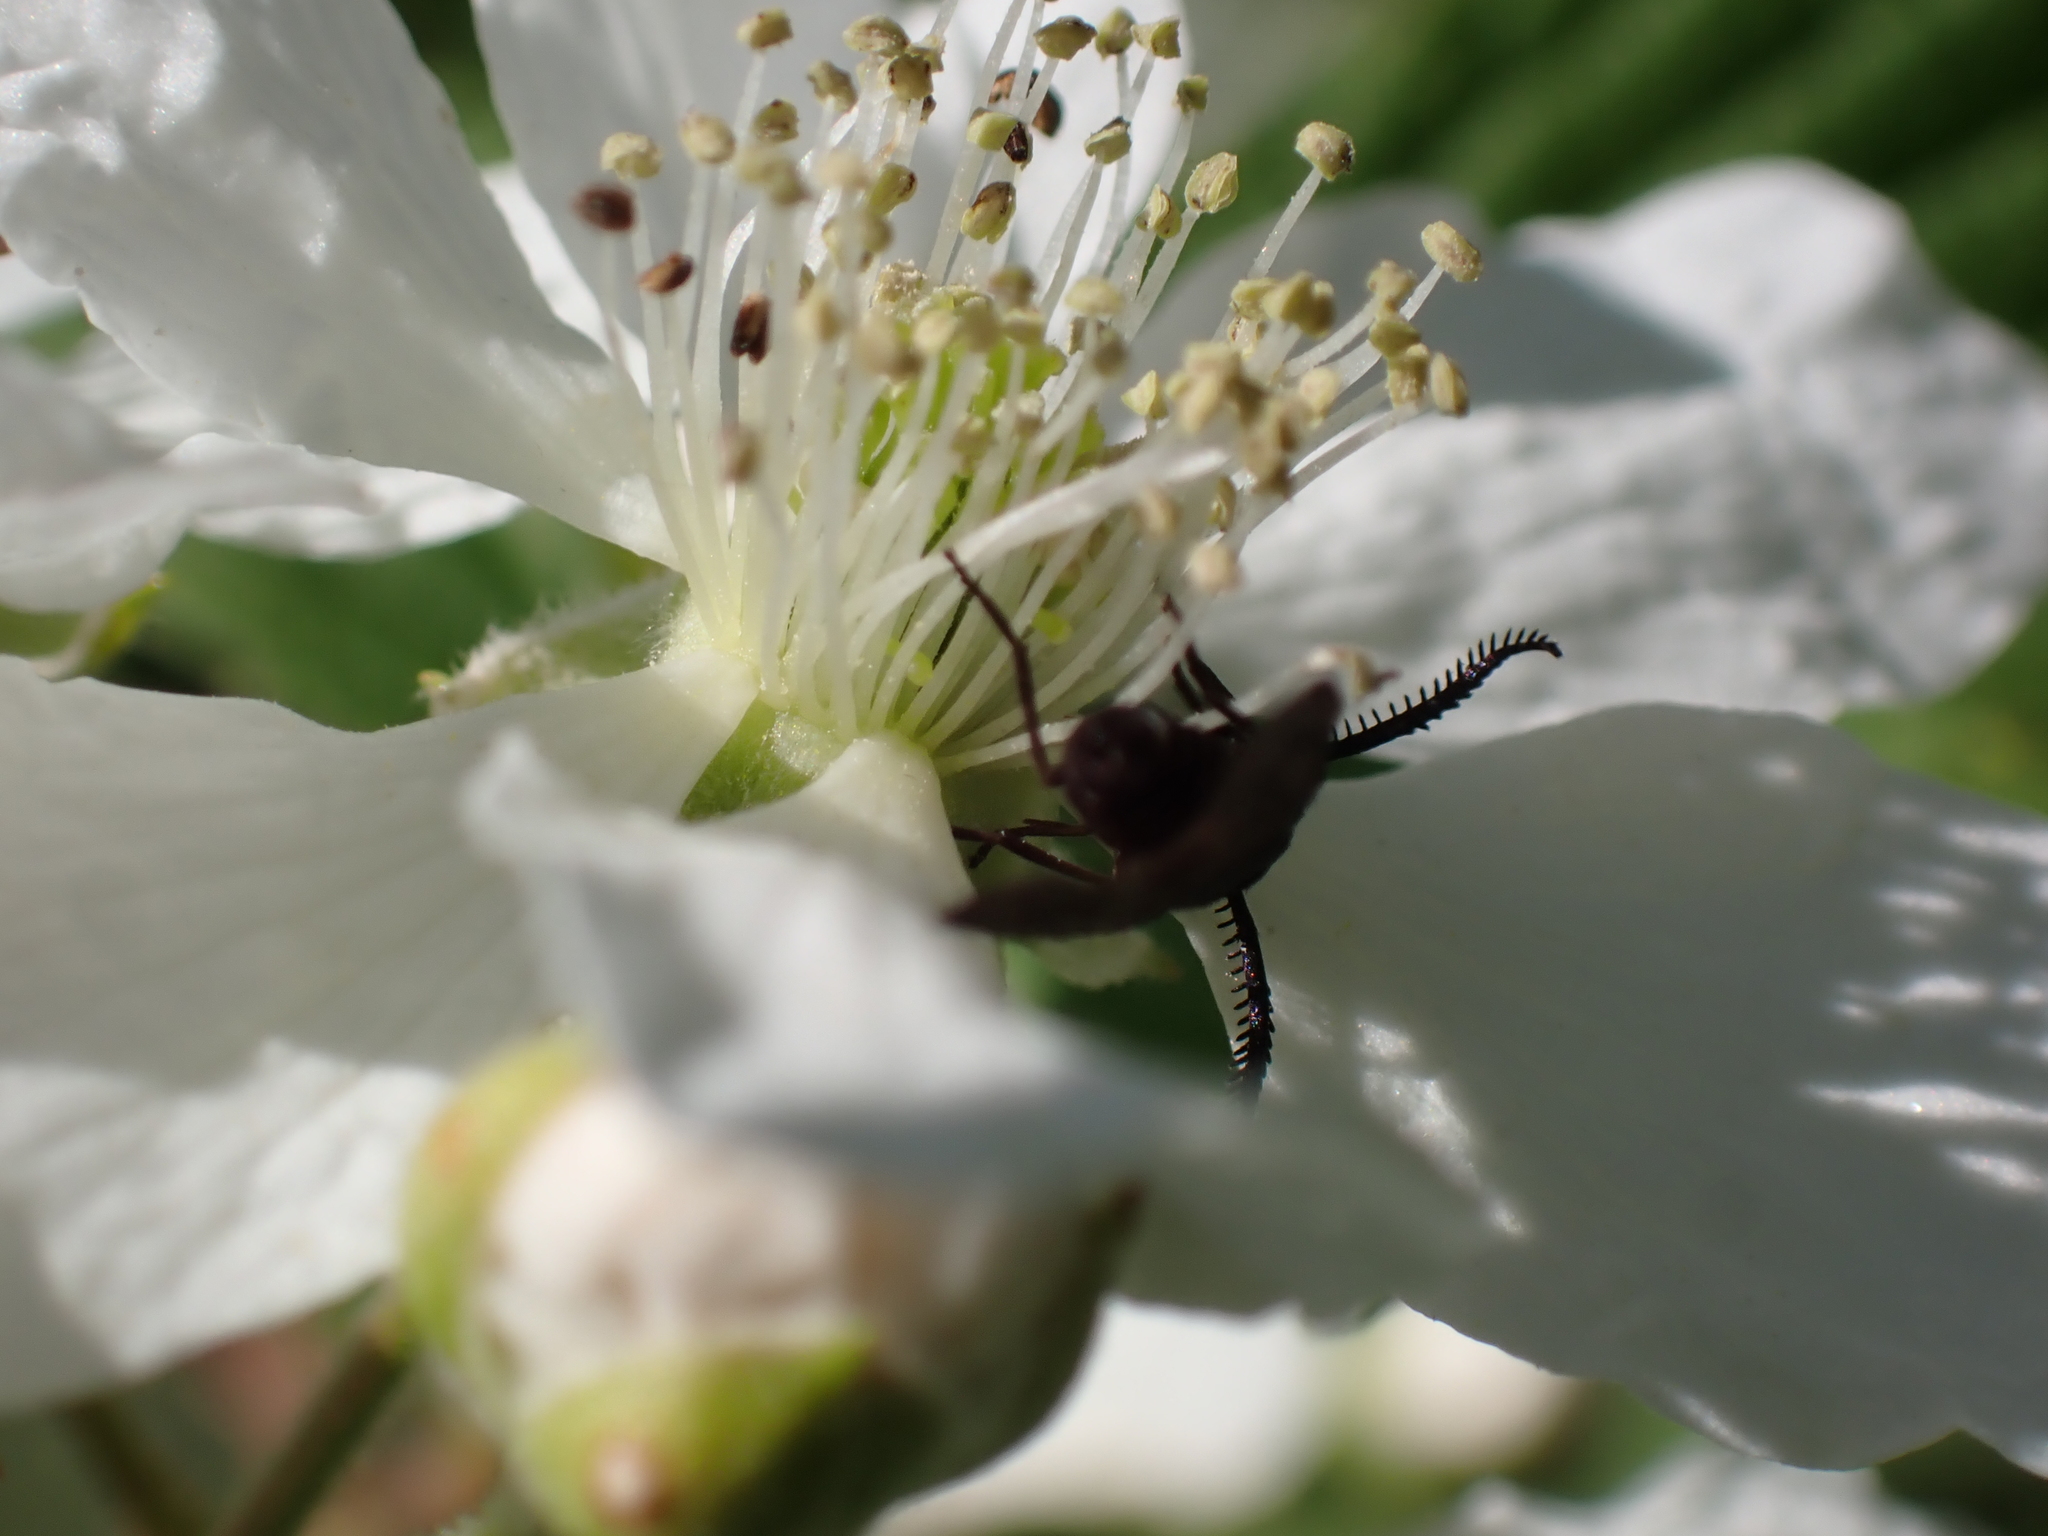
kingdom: Animalia
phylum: Arthropoda
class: Insecta
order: Lepidoptera
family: Zygaenidae
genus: Acoloithus
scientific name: Acoloithus falsarius
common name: Clemens' false skeletonizer
